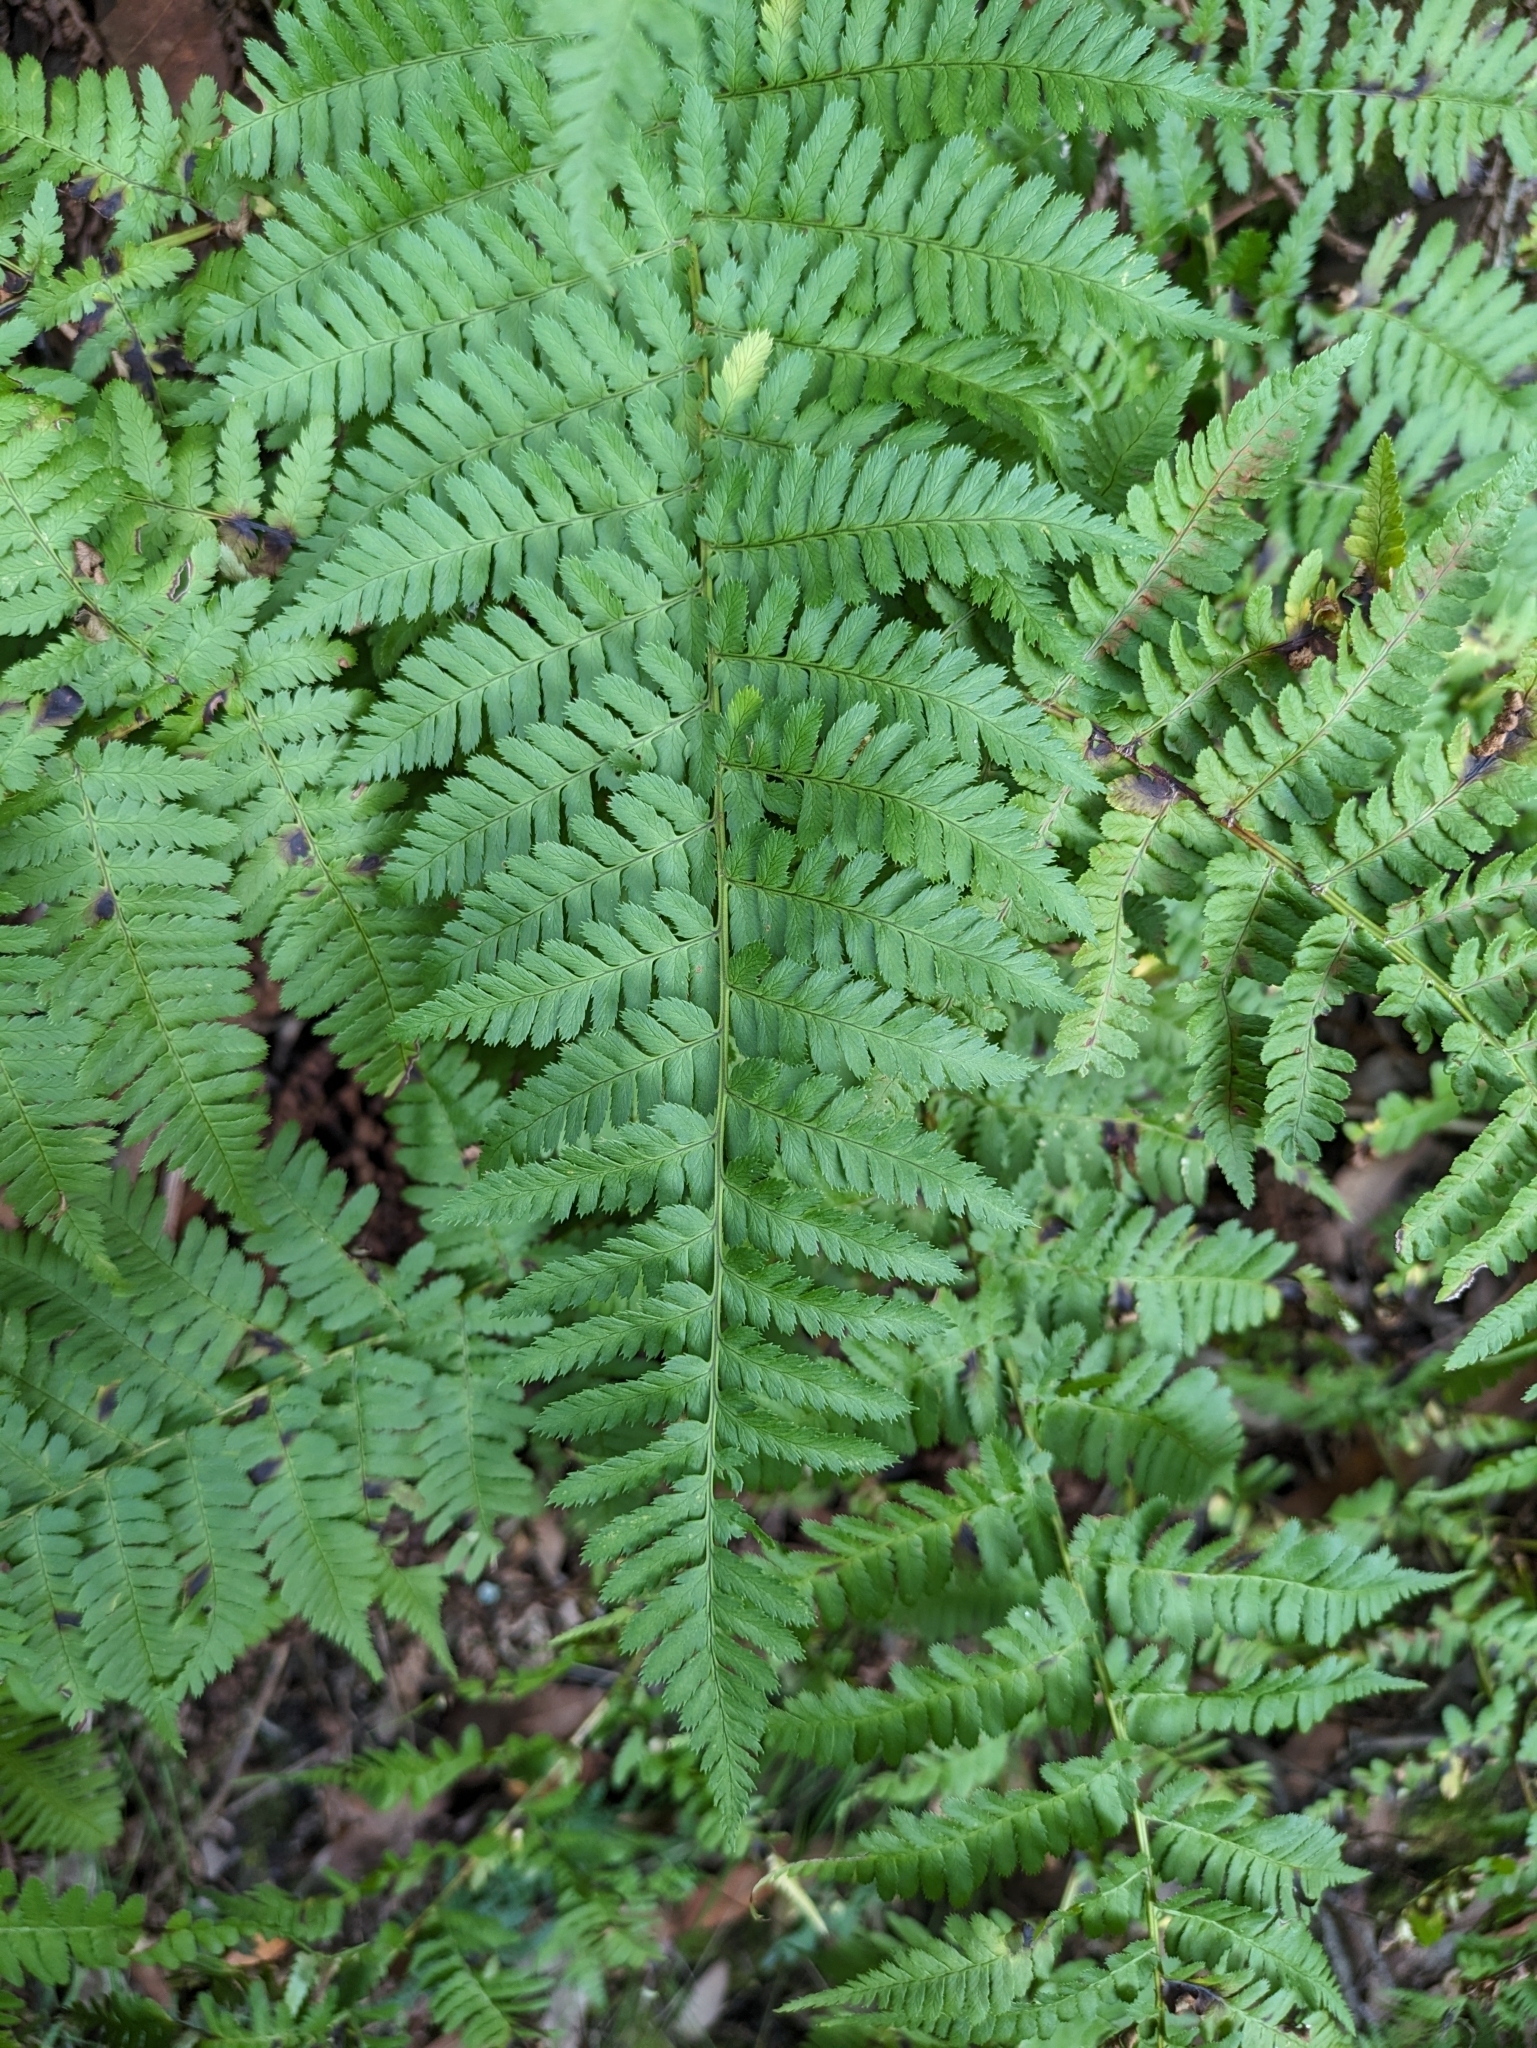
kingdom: Plantae
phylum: Tracheophyta
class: Polypodiopsida
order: Polypodiales
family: Athyriaceae
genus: Athyrium
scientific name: Athyrium filix-femina
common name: Lady fern
